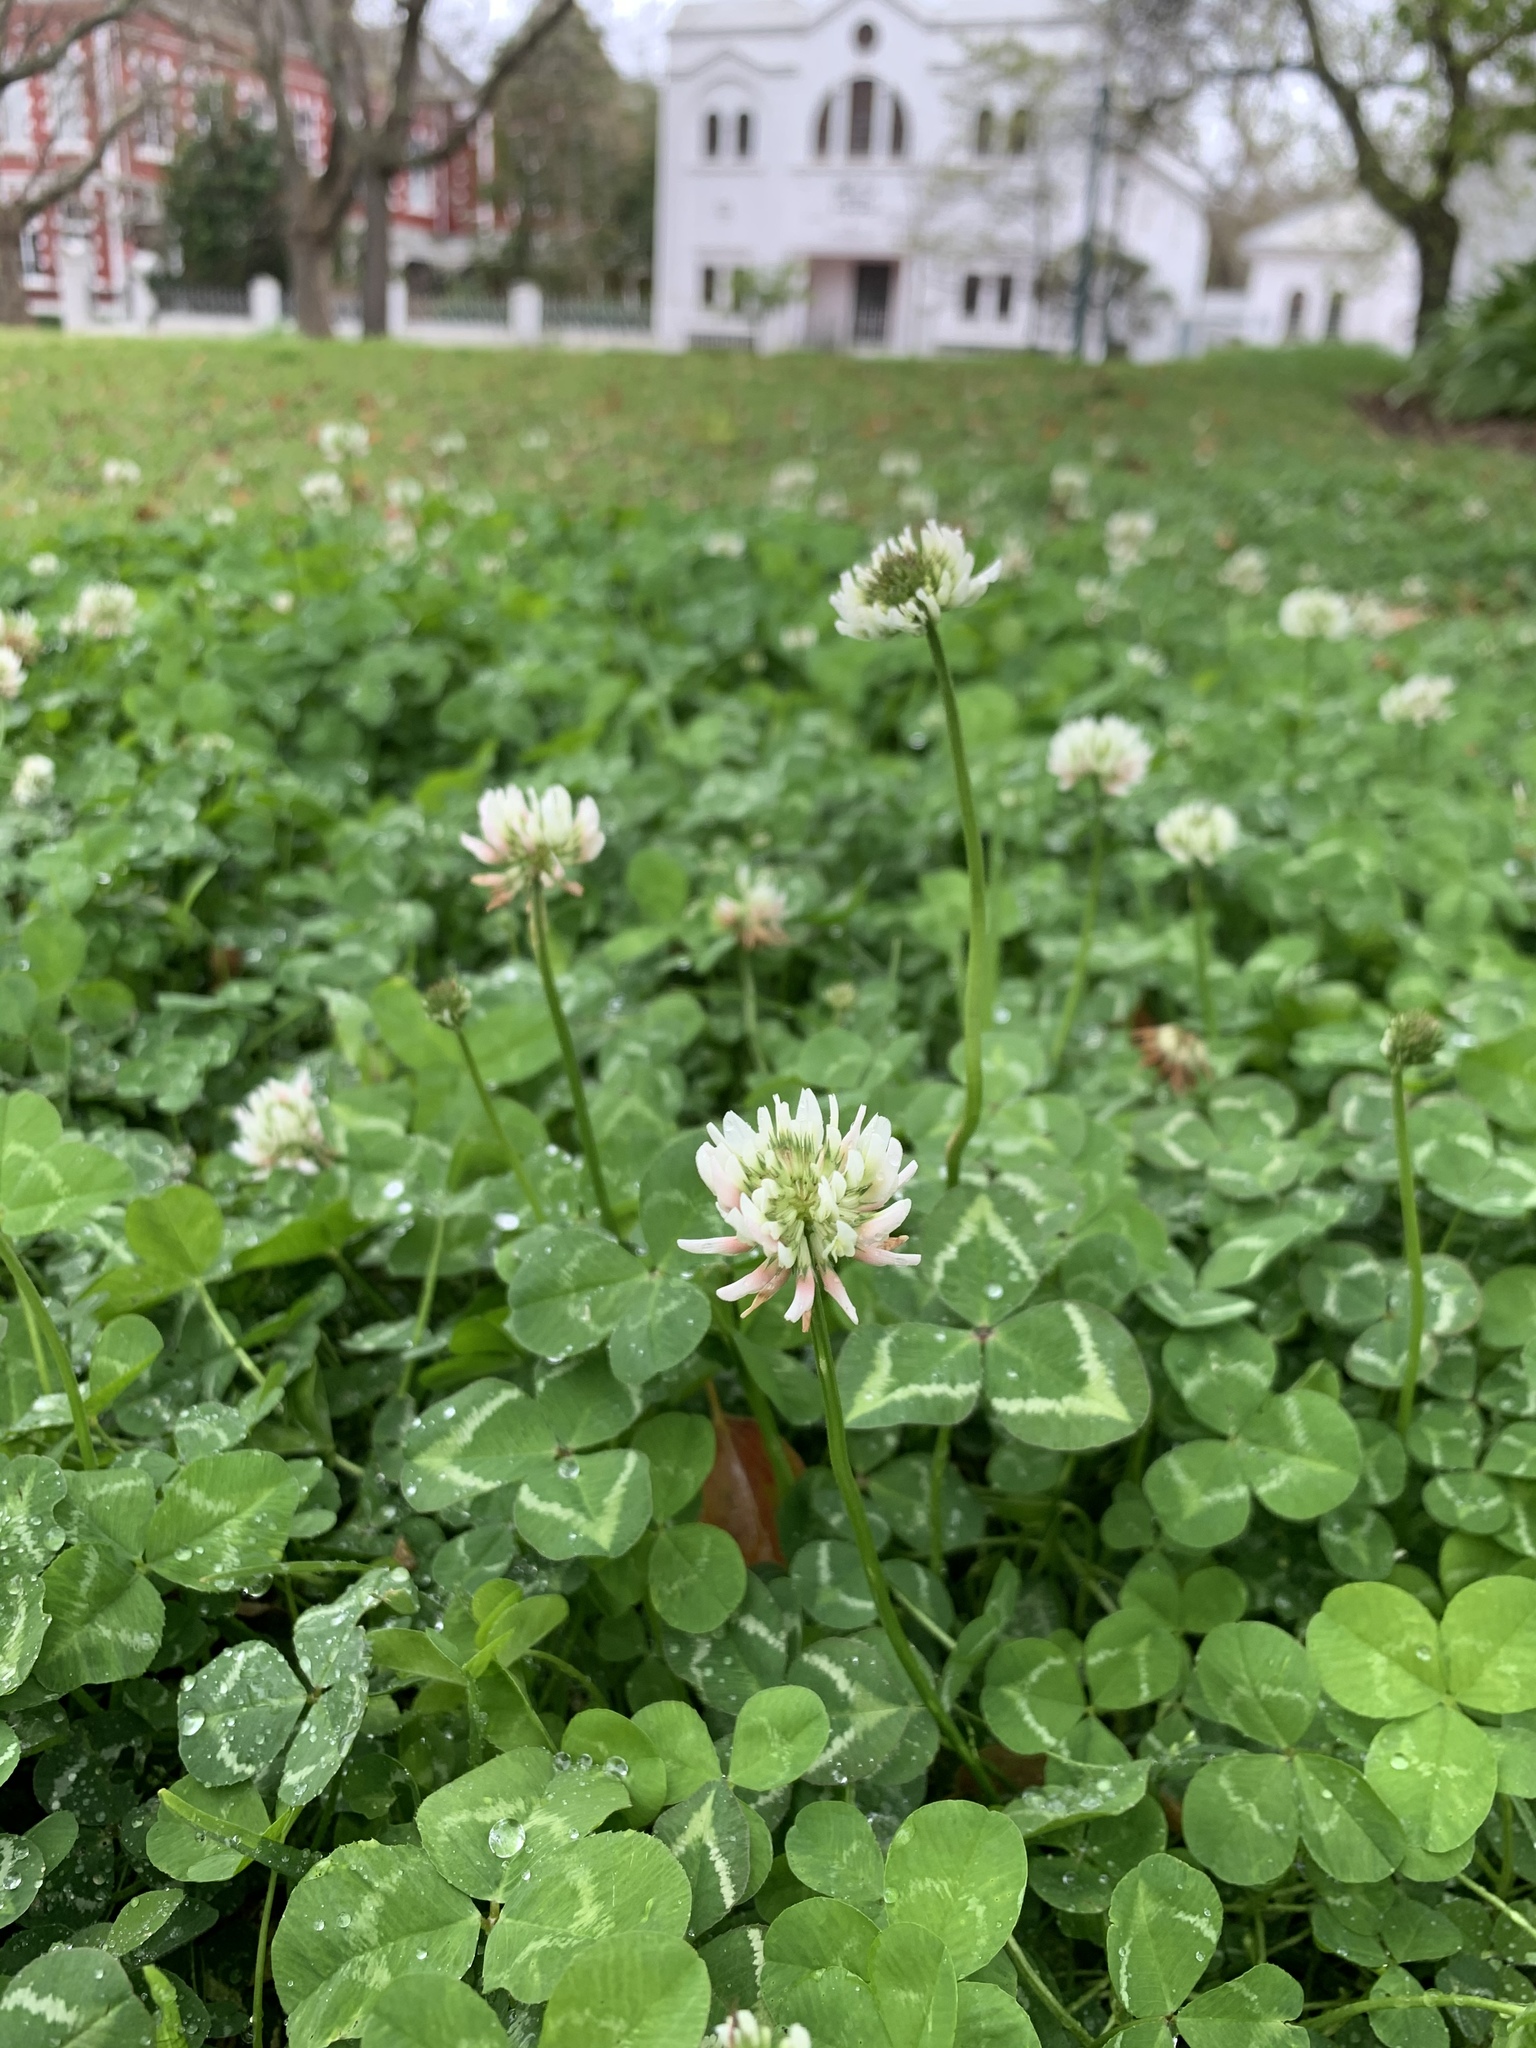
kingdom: Plantae
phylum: Tracheophyta
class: Magnoliopsida
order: Fabales
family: Fabaceae
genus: Trifolium
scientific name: Trifolium repens
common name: White clover
